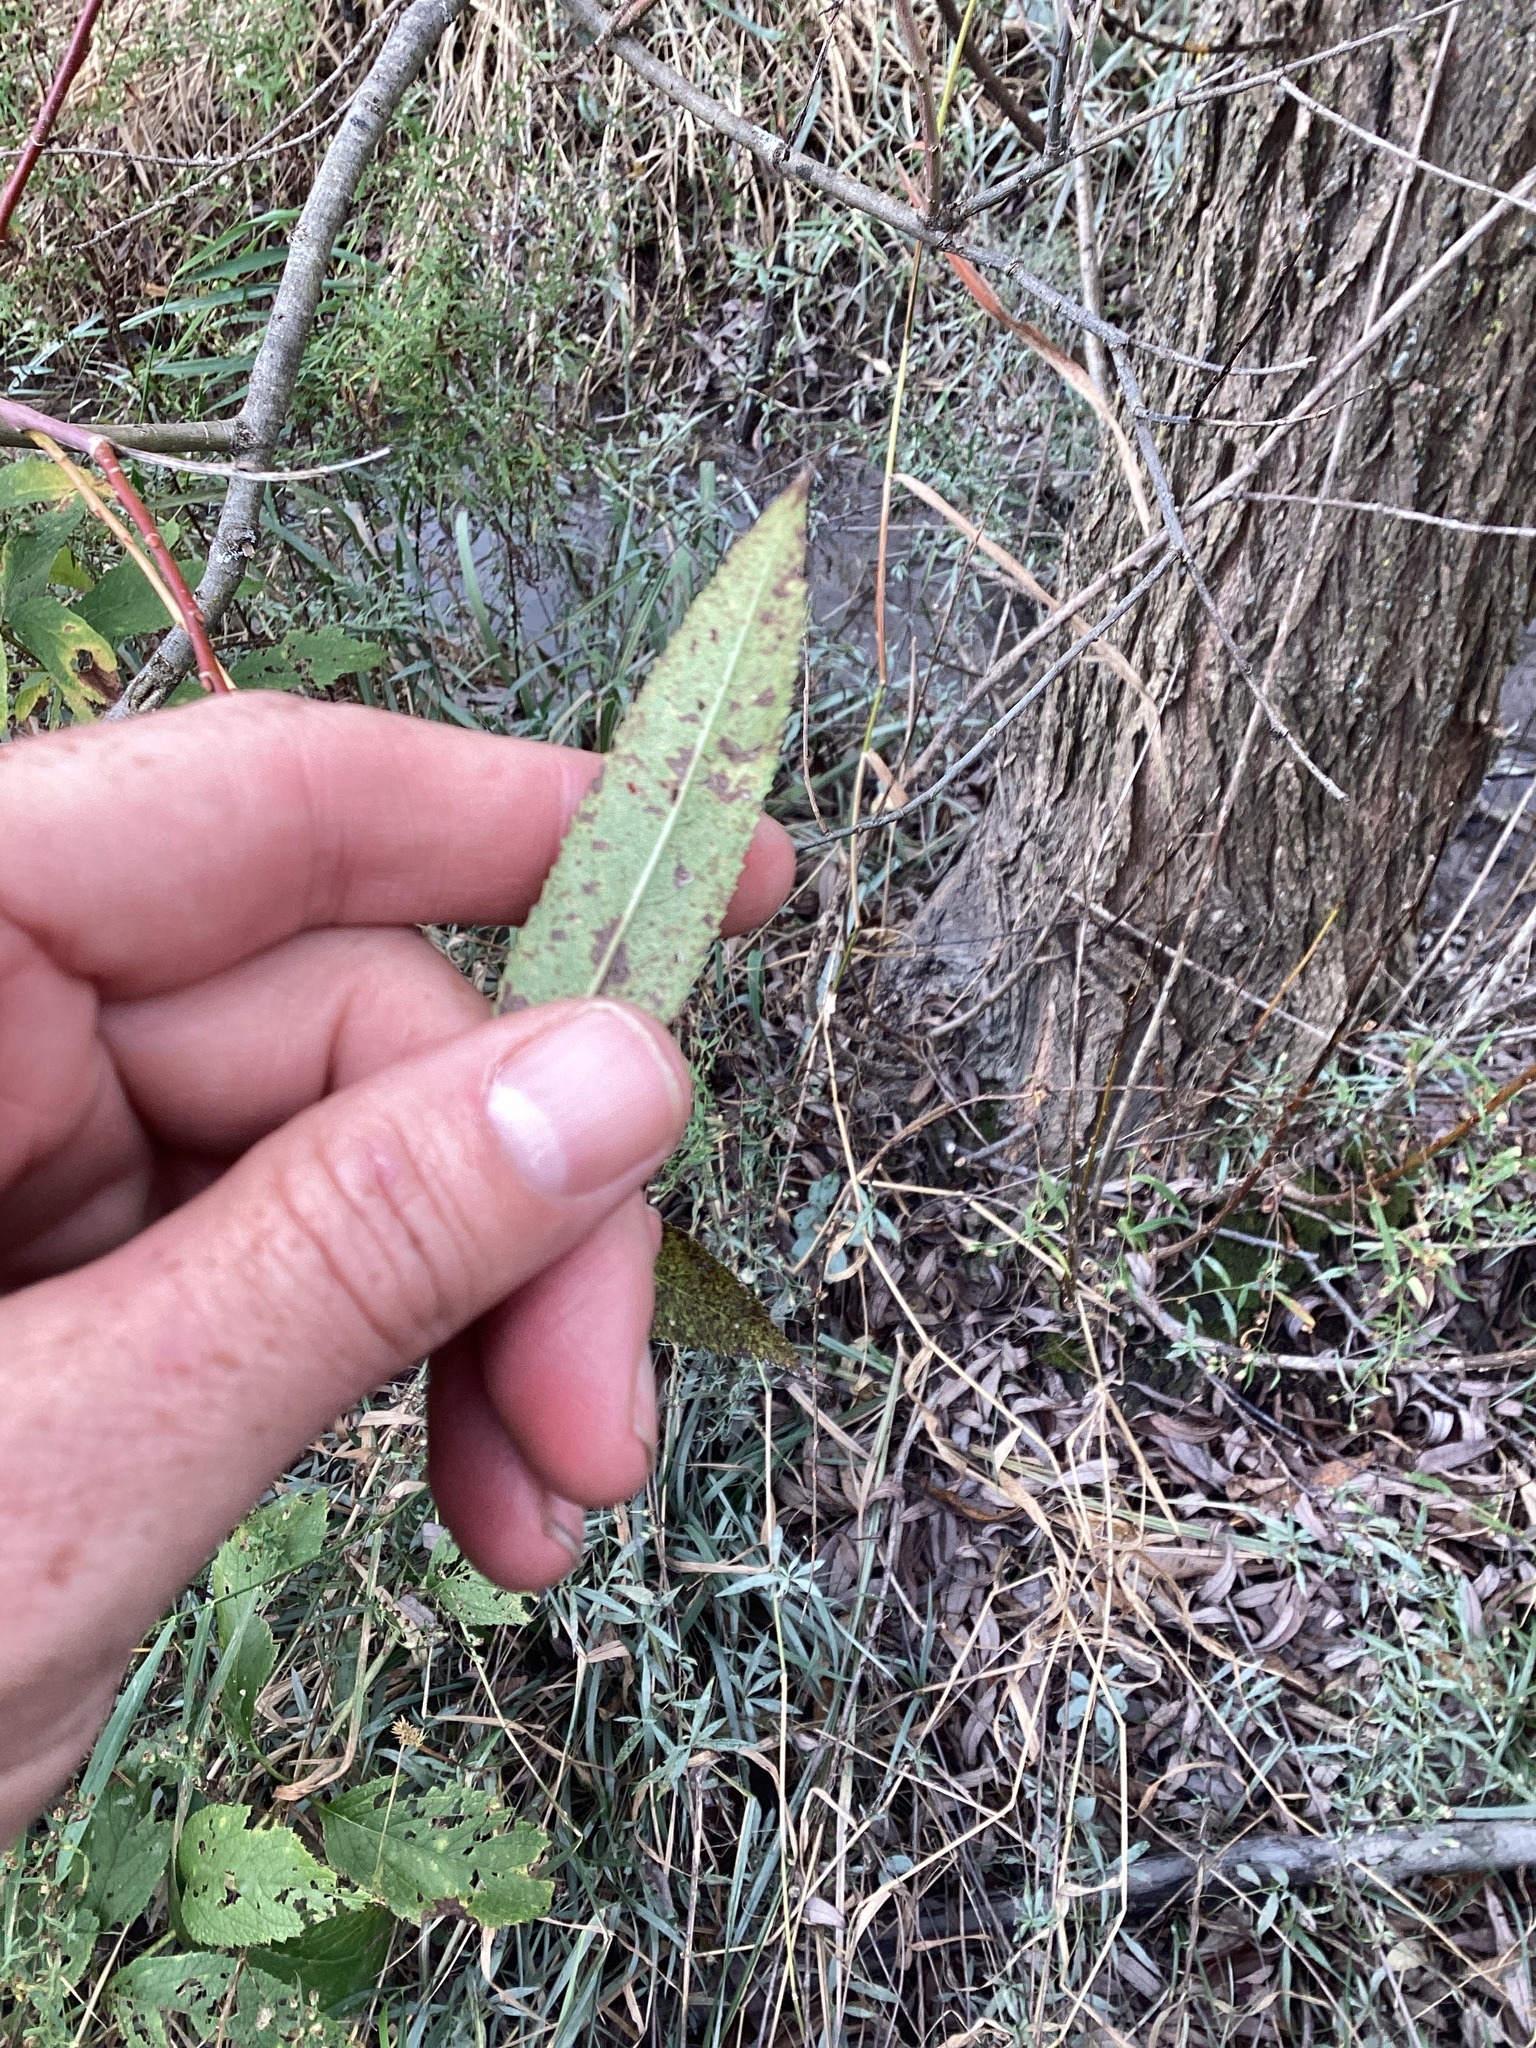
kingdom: Plantae
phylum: Tracheophyta
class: Magnoliopsida
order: Malpighiales
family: Salicaceae
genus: Salix
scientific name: Salix nigra
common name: Black willow
